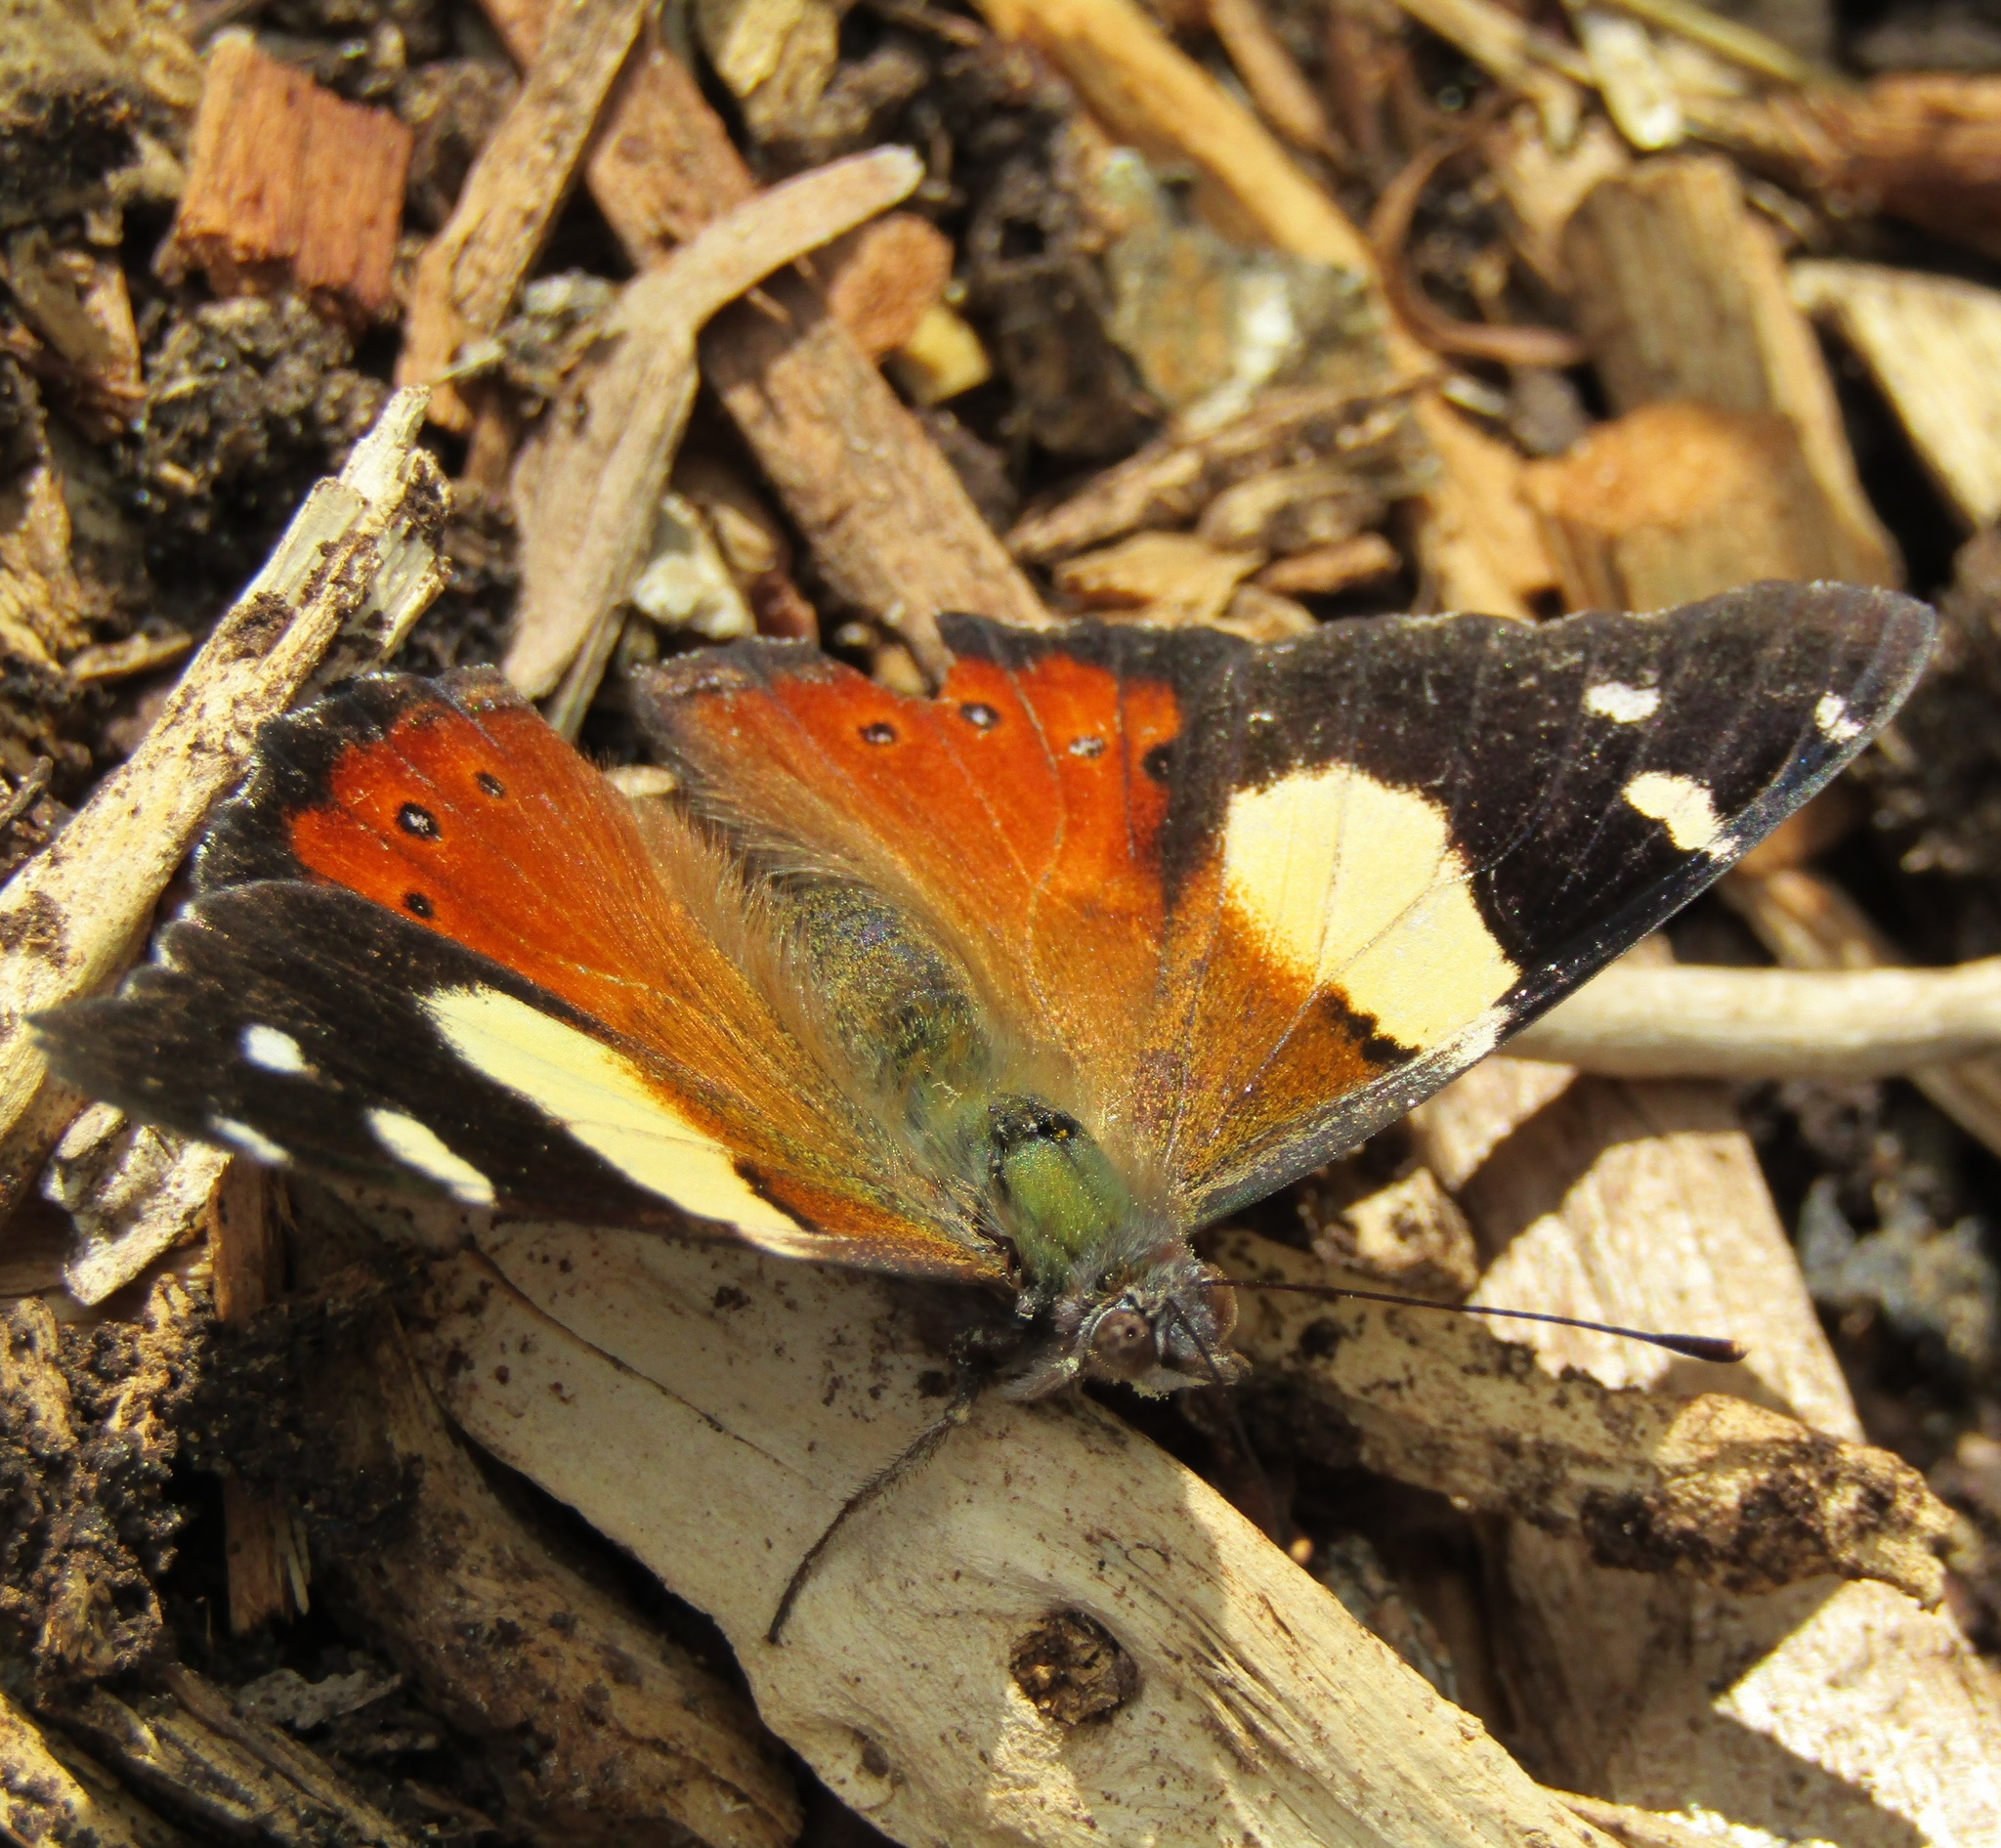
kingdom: Animalia
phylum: Arthropoda
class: Insecta
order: Lepidoptera
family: Nymphalidae
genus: Vanessa
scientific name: Vanessa itea
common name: Yellow admiral
